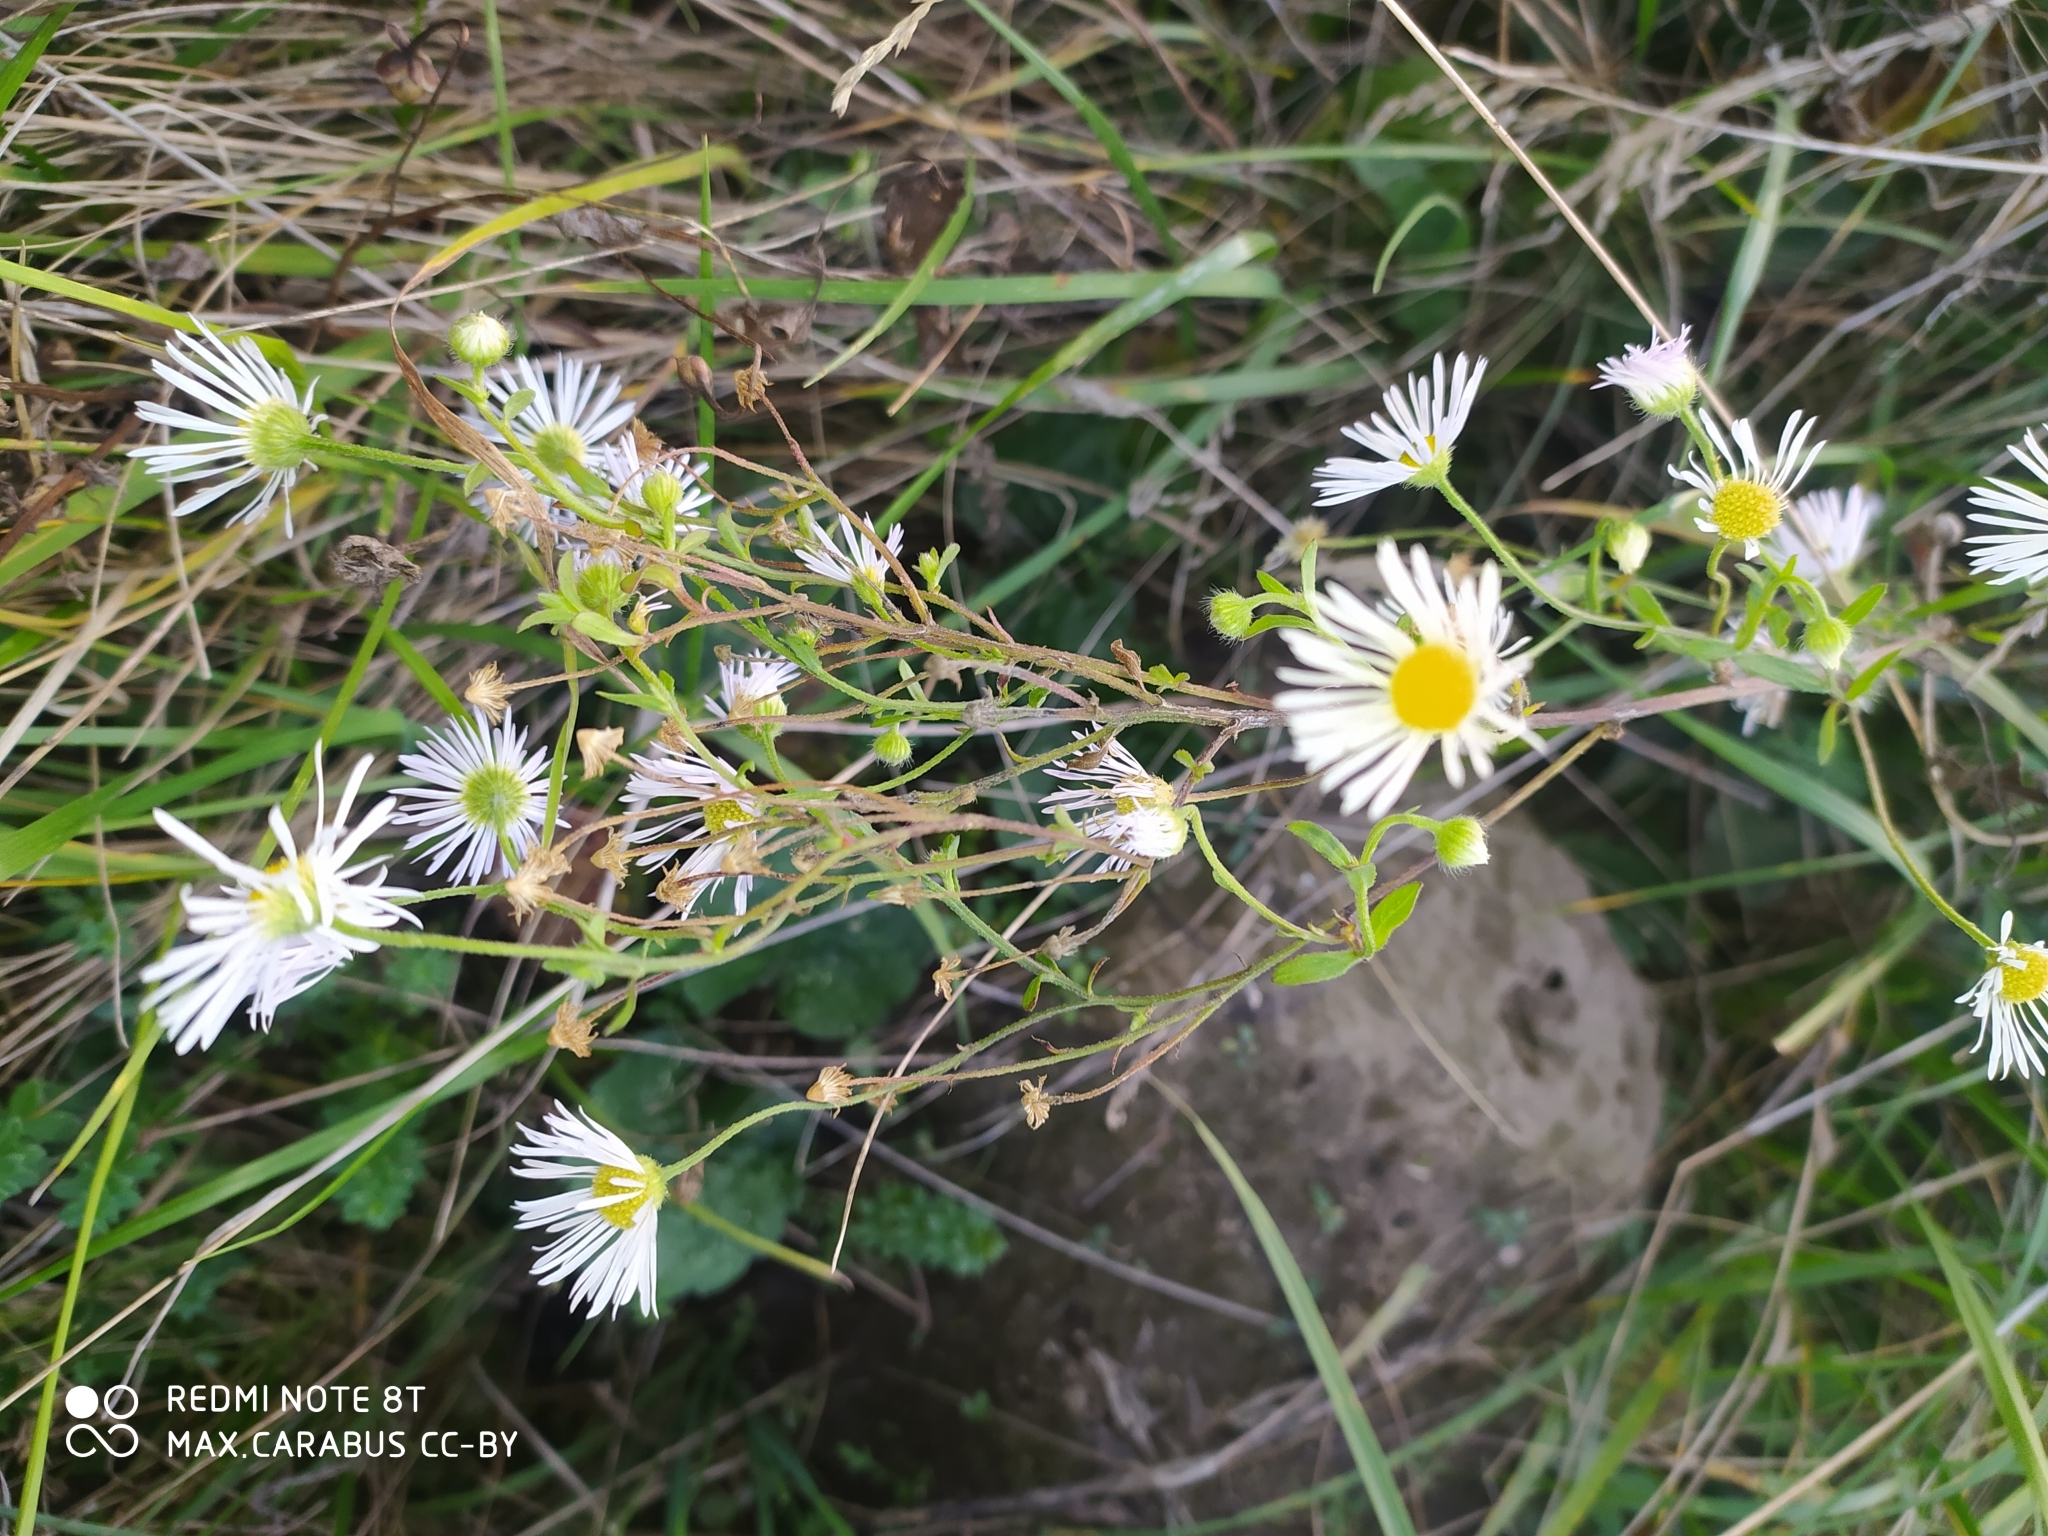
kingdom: Plantae
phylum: Tracheophyta
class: Magnoliopsida
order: Asterales
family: Asteraceae
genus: Erigeron
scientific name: Erigeron annuus
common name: Tall fleabane
